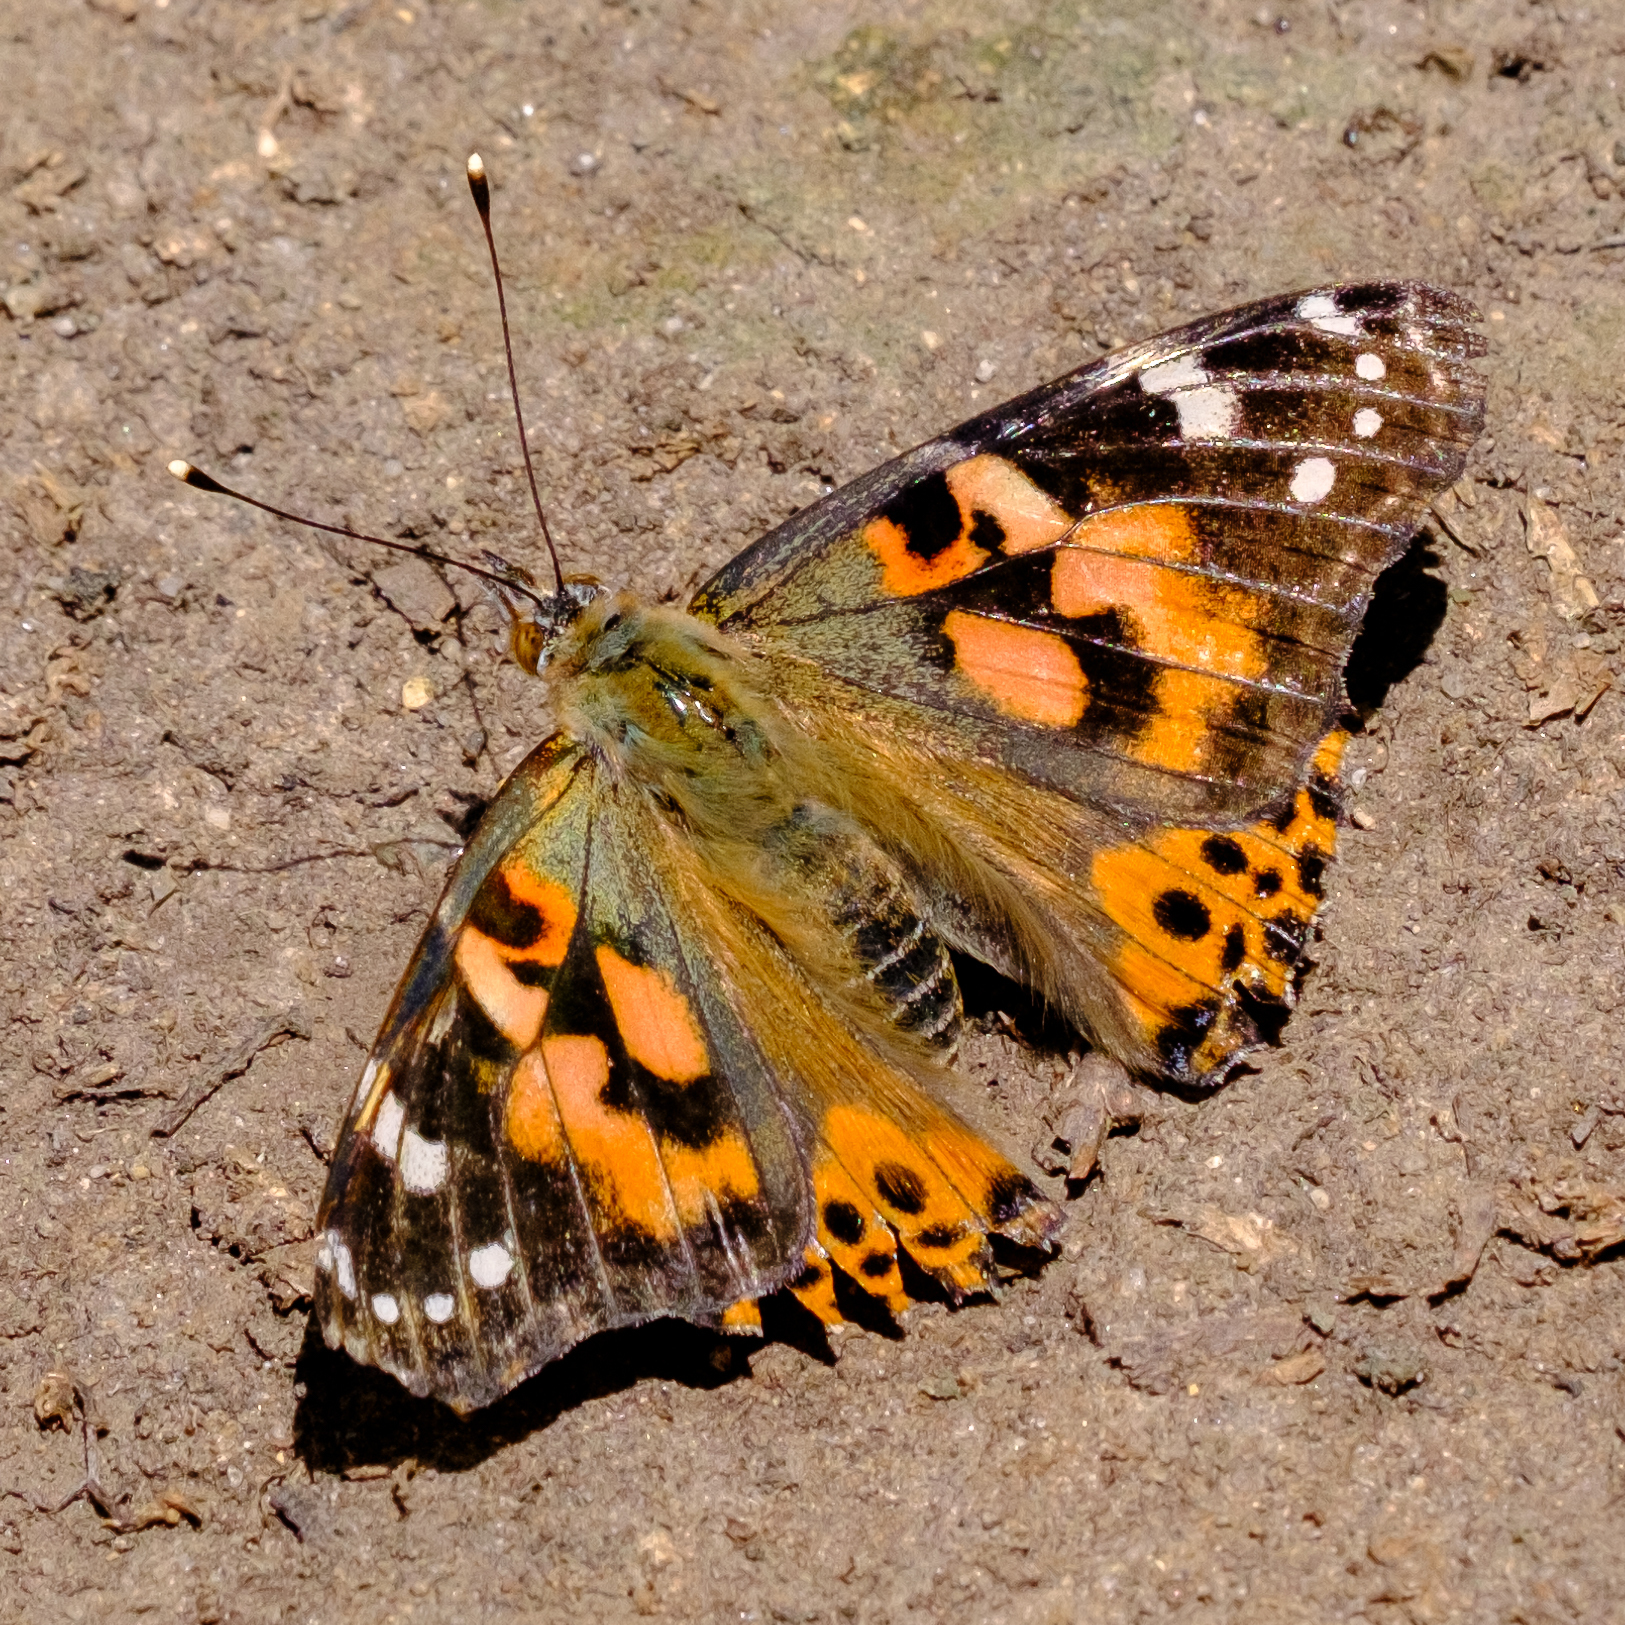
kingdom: Animalia
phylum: Arthropoda
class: Insecta
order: Lepidoptera
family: Nymphalidae
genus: Vanessa
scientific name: Vanessa cardui
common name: Painted lady
